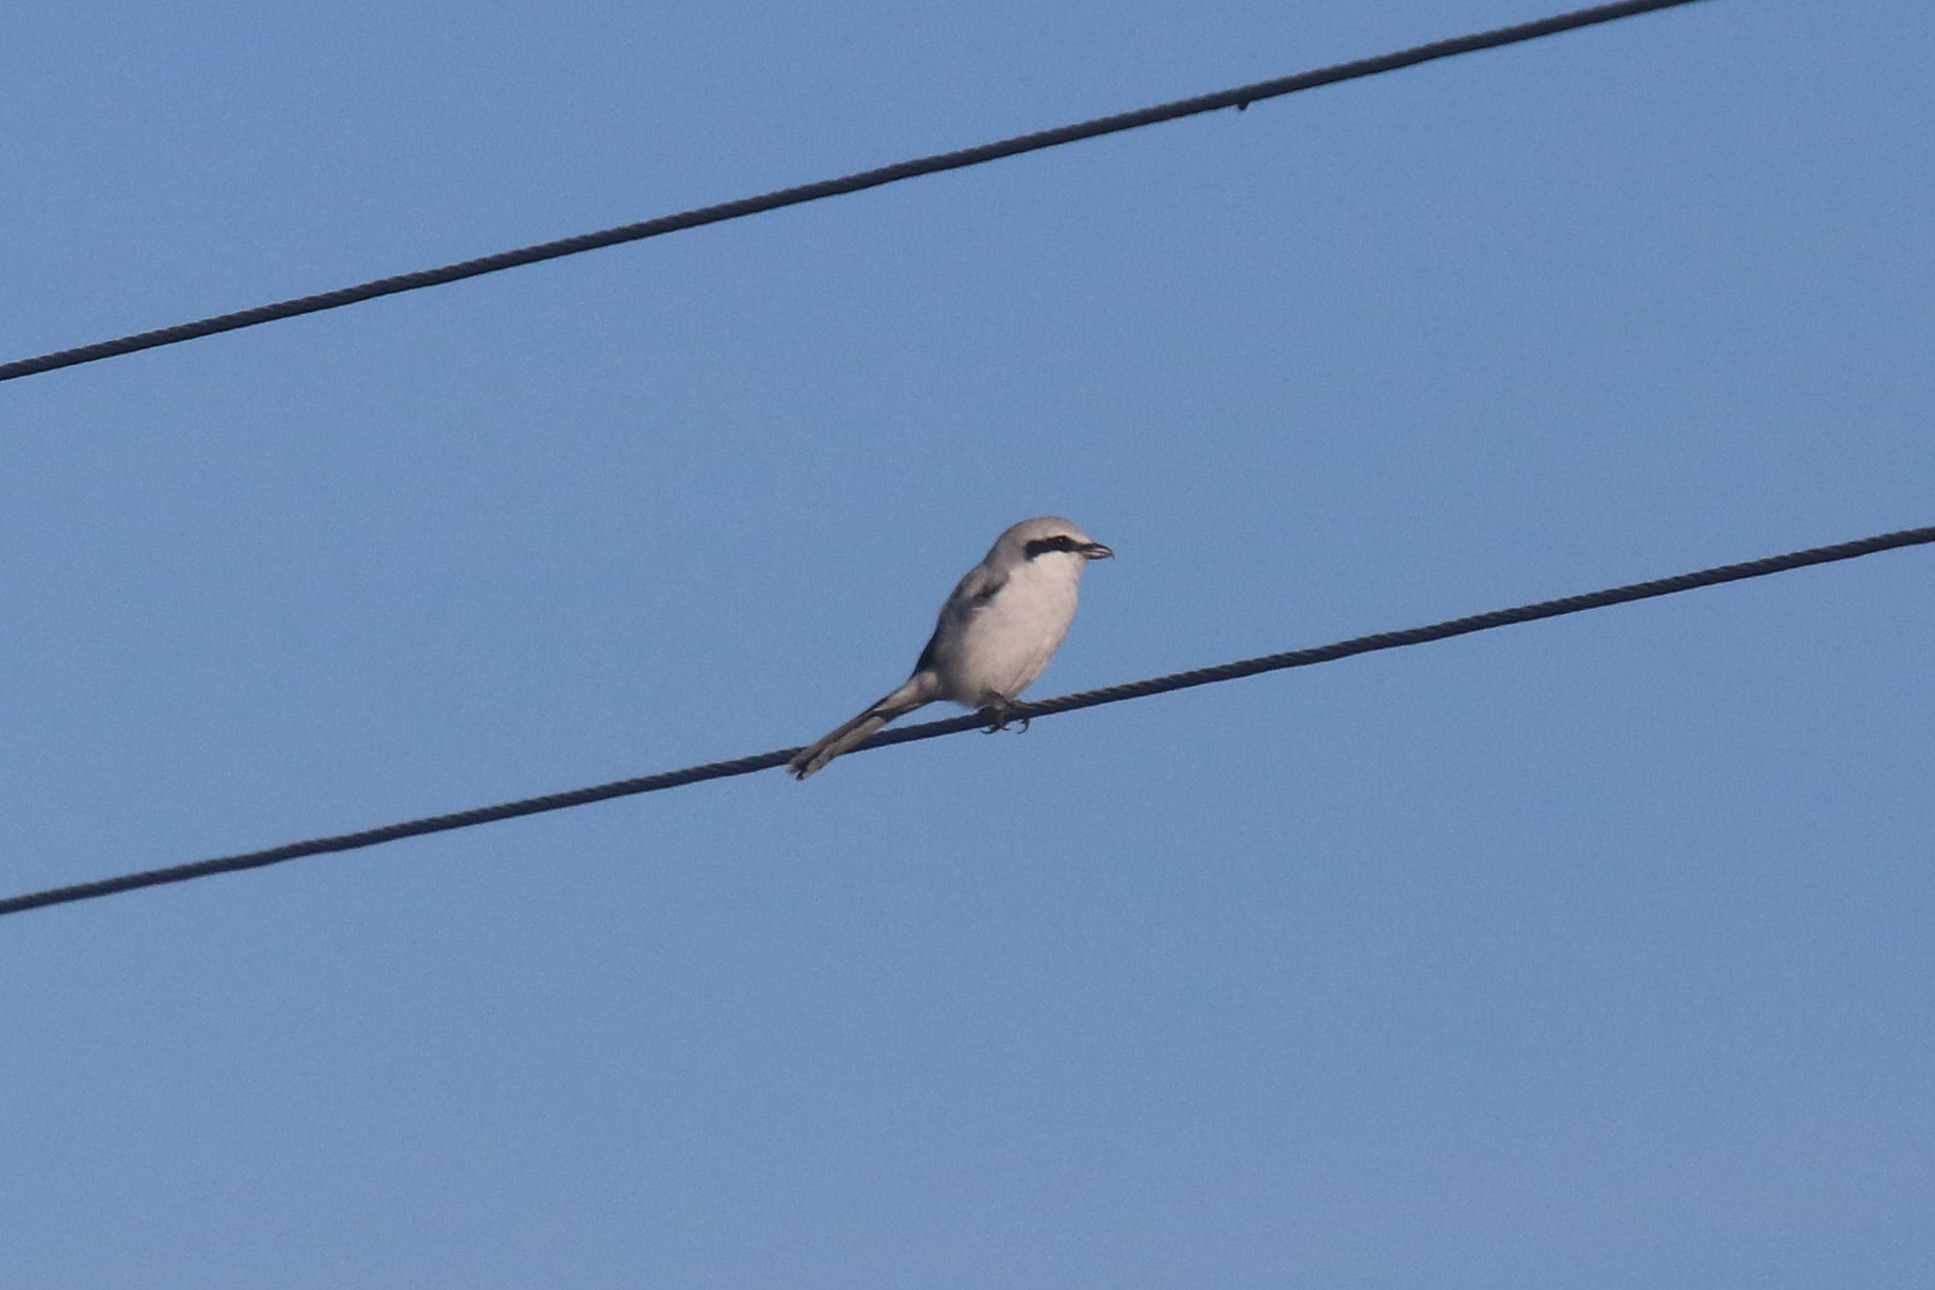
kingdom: Animalia
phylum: Chordata
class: Aves
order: Passeriformes
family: Laniidae
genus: Lanius
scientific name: Lanius excubitor
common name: Great grey shrike
